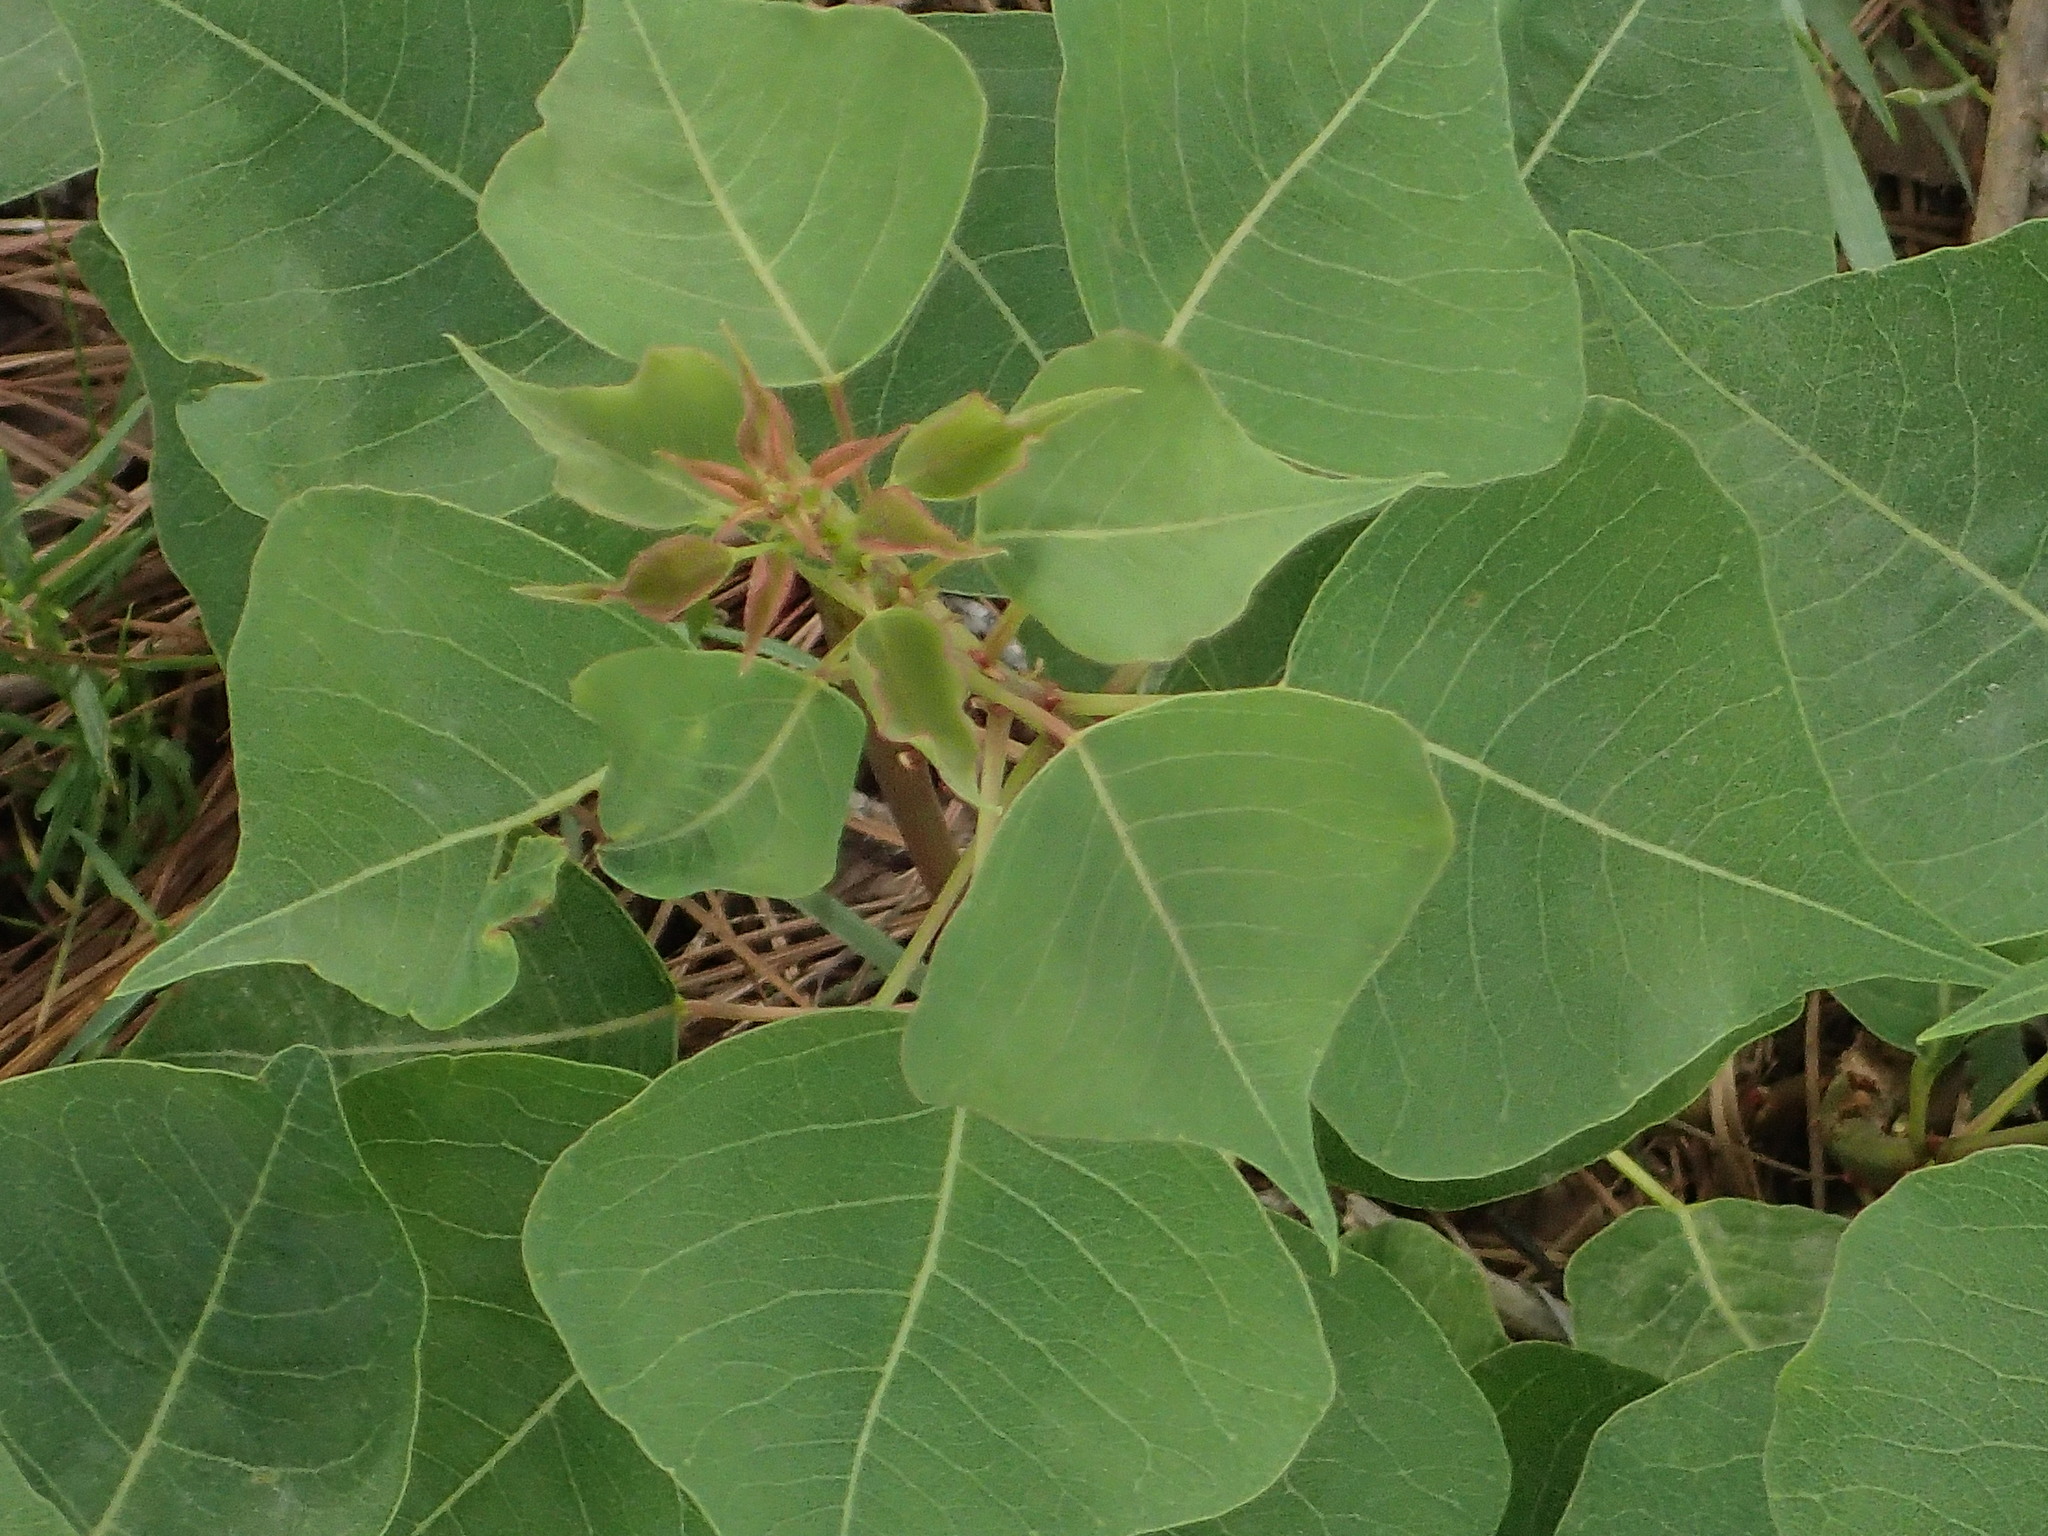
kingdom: Plantae
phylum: Tracheophyta
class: Magnoliopsida
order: Malpighiales
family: Euphorbiaceae
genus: Triadica
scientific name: Triadica sebifera
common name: Chinese tallow
